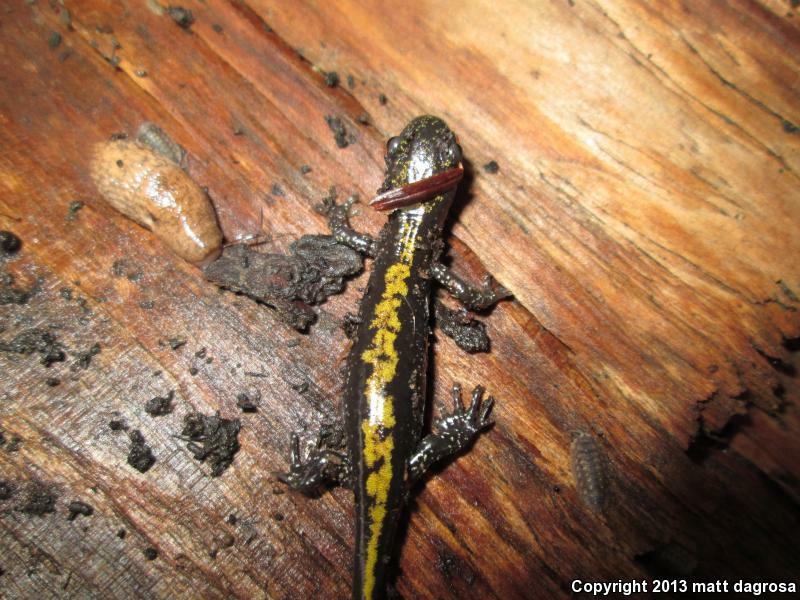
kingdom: Animalia
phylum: Chordata
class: Amphibia
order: Caudata
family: Ambystomatidae
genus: Ambystoma
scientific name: Ambystoma macrodactylum
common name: Long-toed salamander
